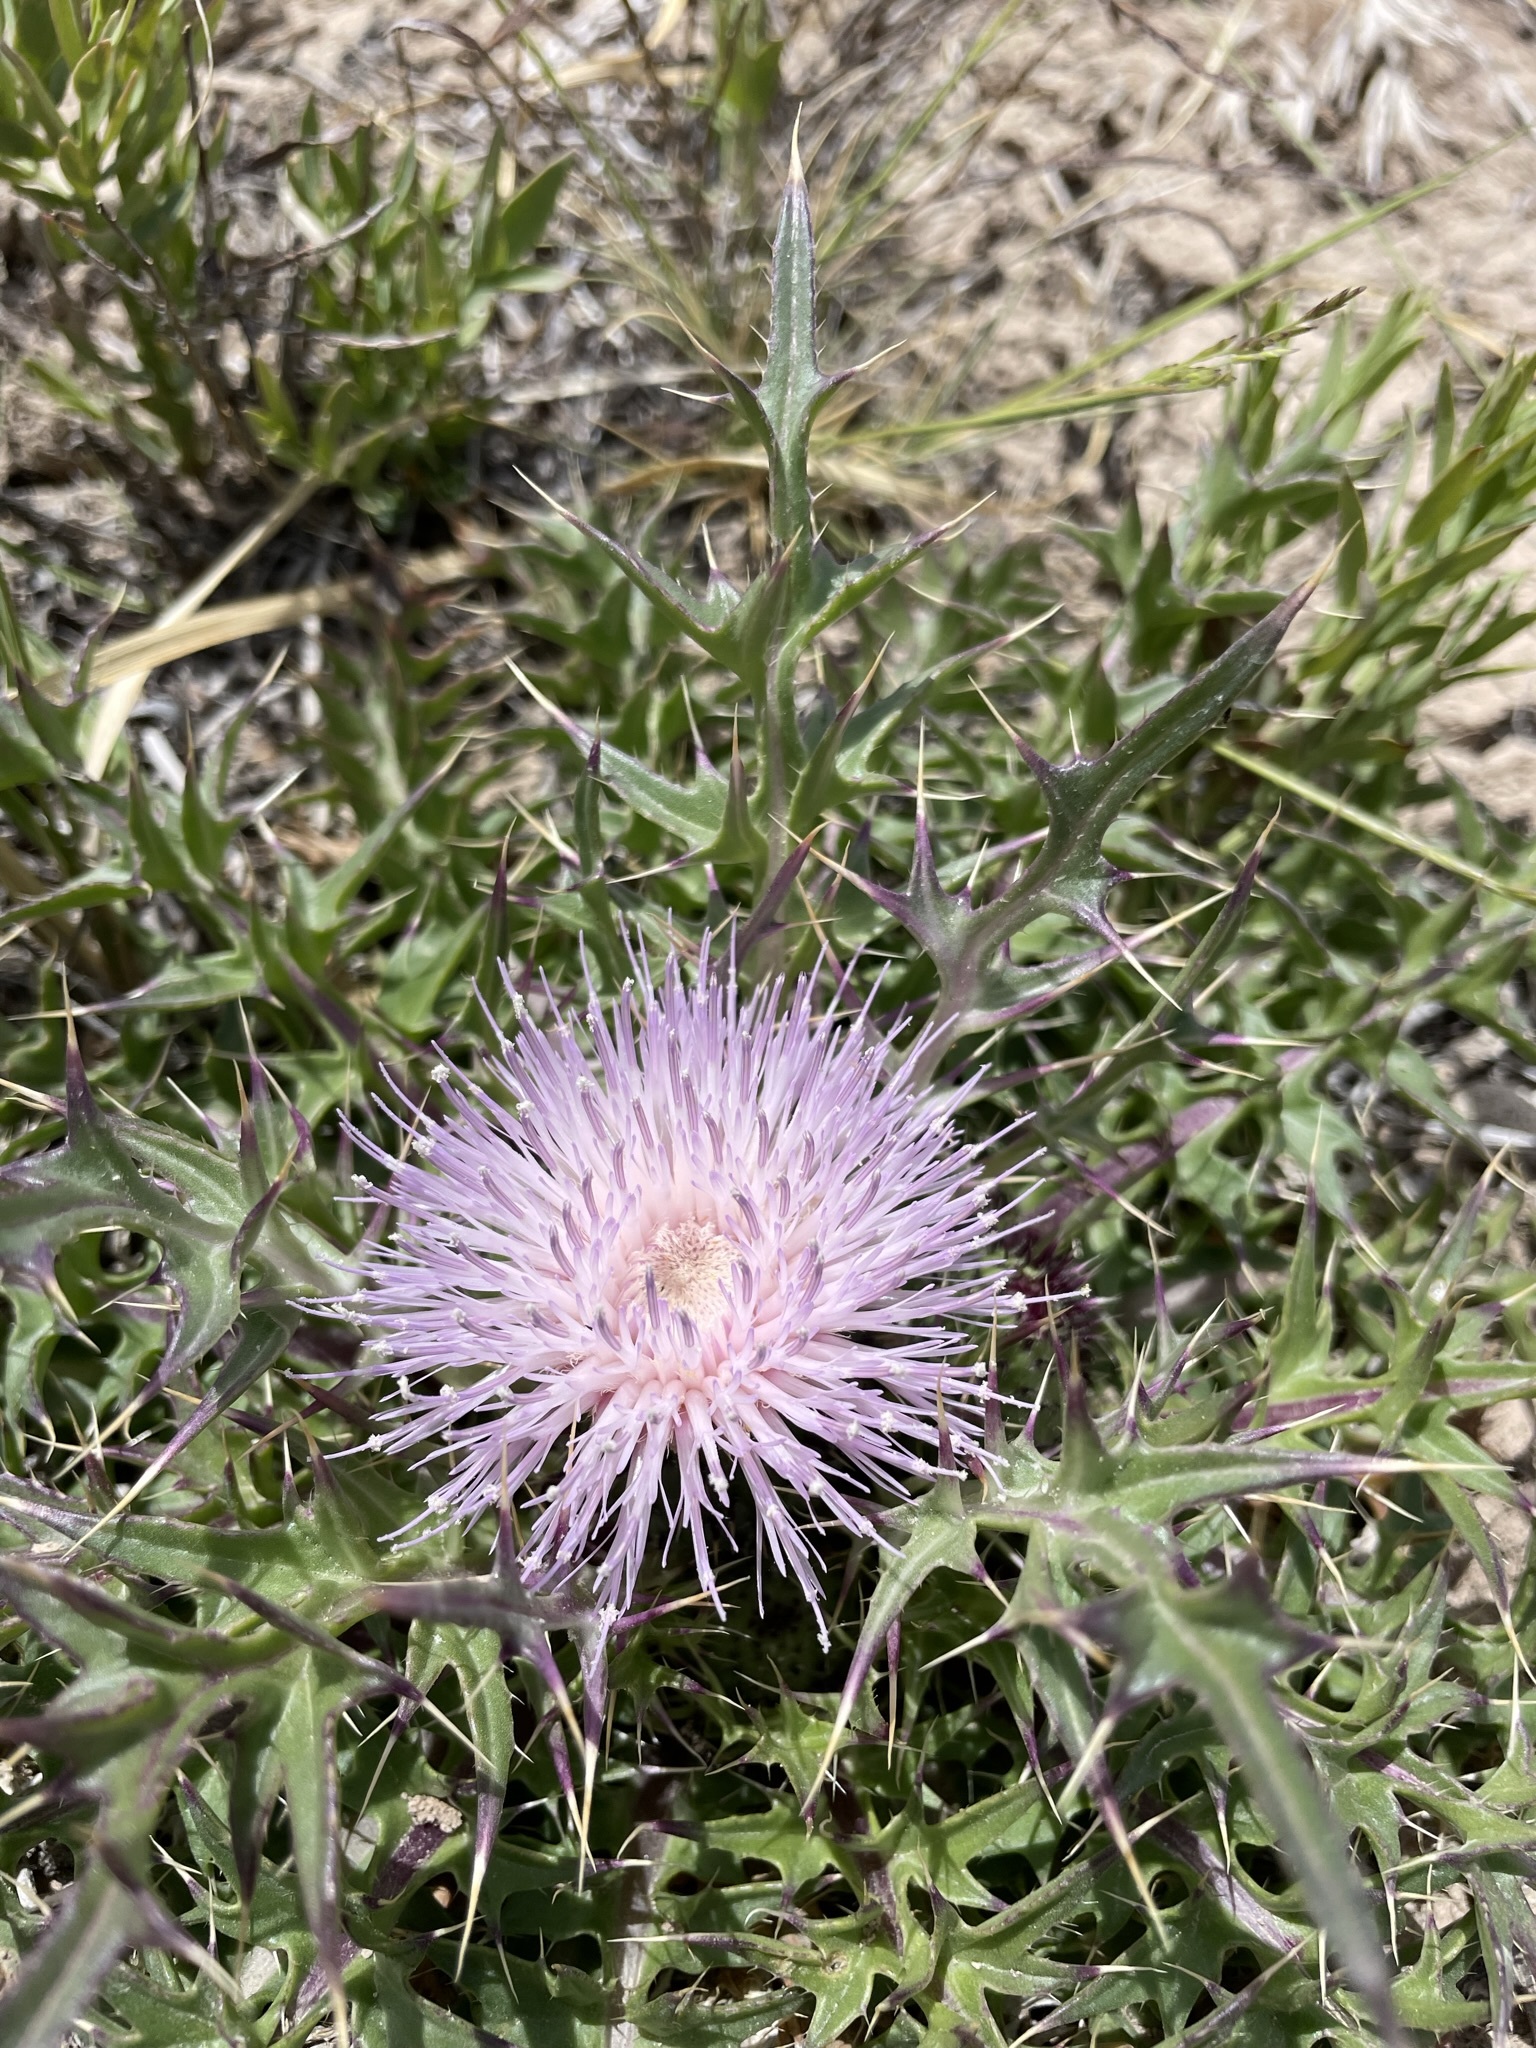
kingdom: Plantae
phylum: Tracheophyta
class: Magnoliopsida
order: Asterales
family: Asteraceae
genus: Cirsium
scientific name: Cirsium scariosum
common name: Meadow thistle
